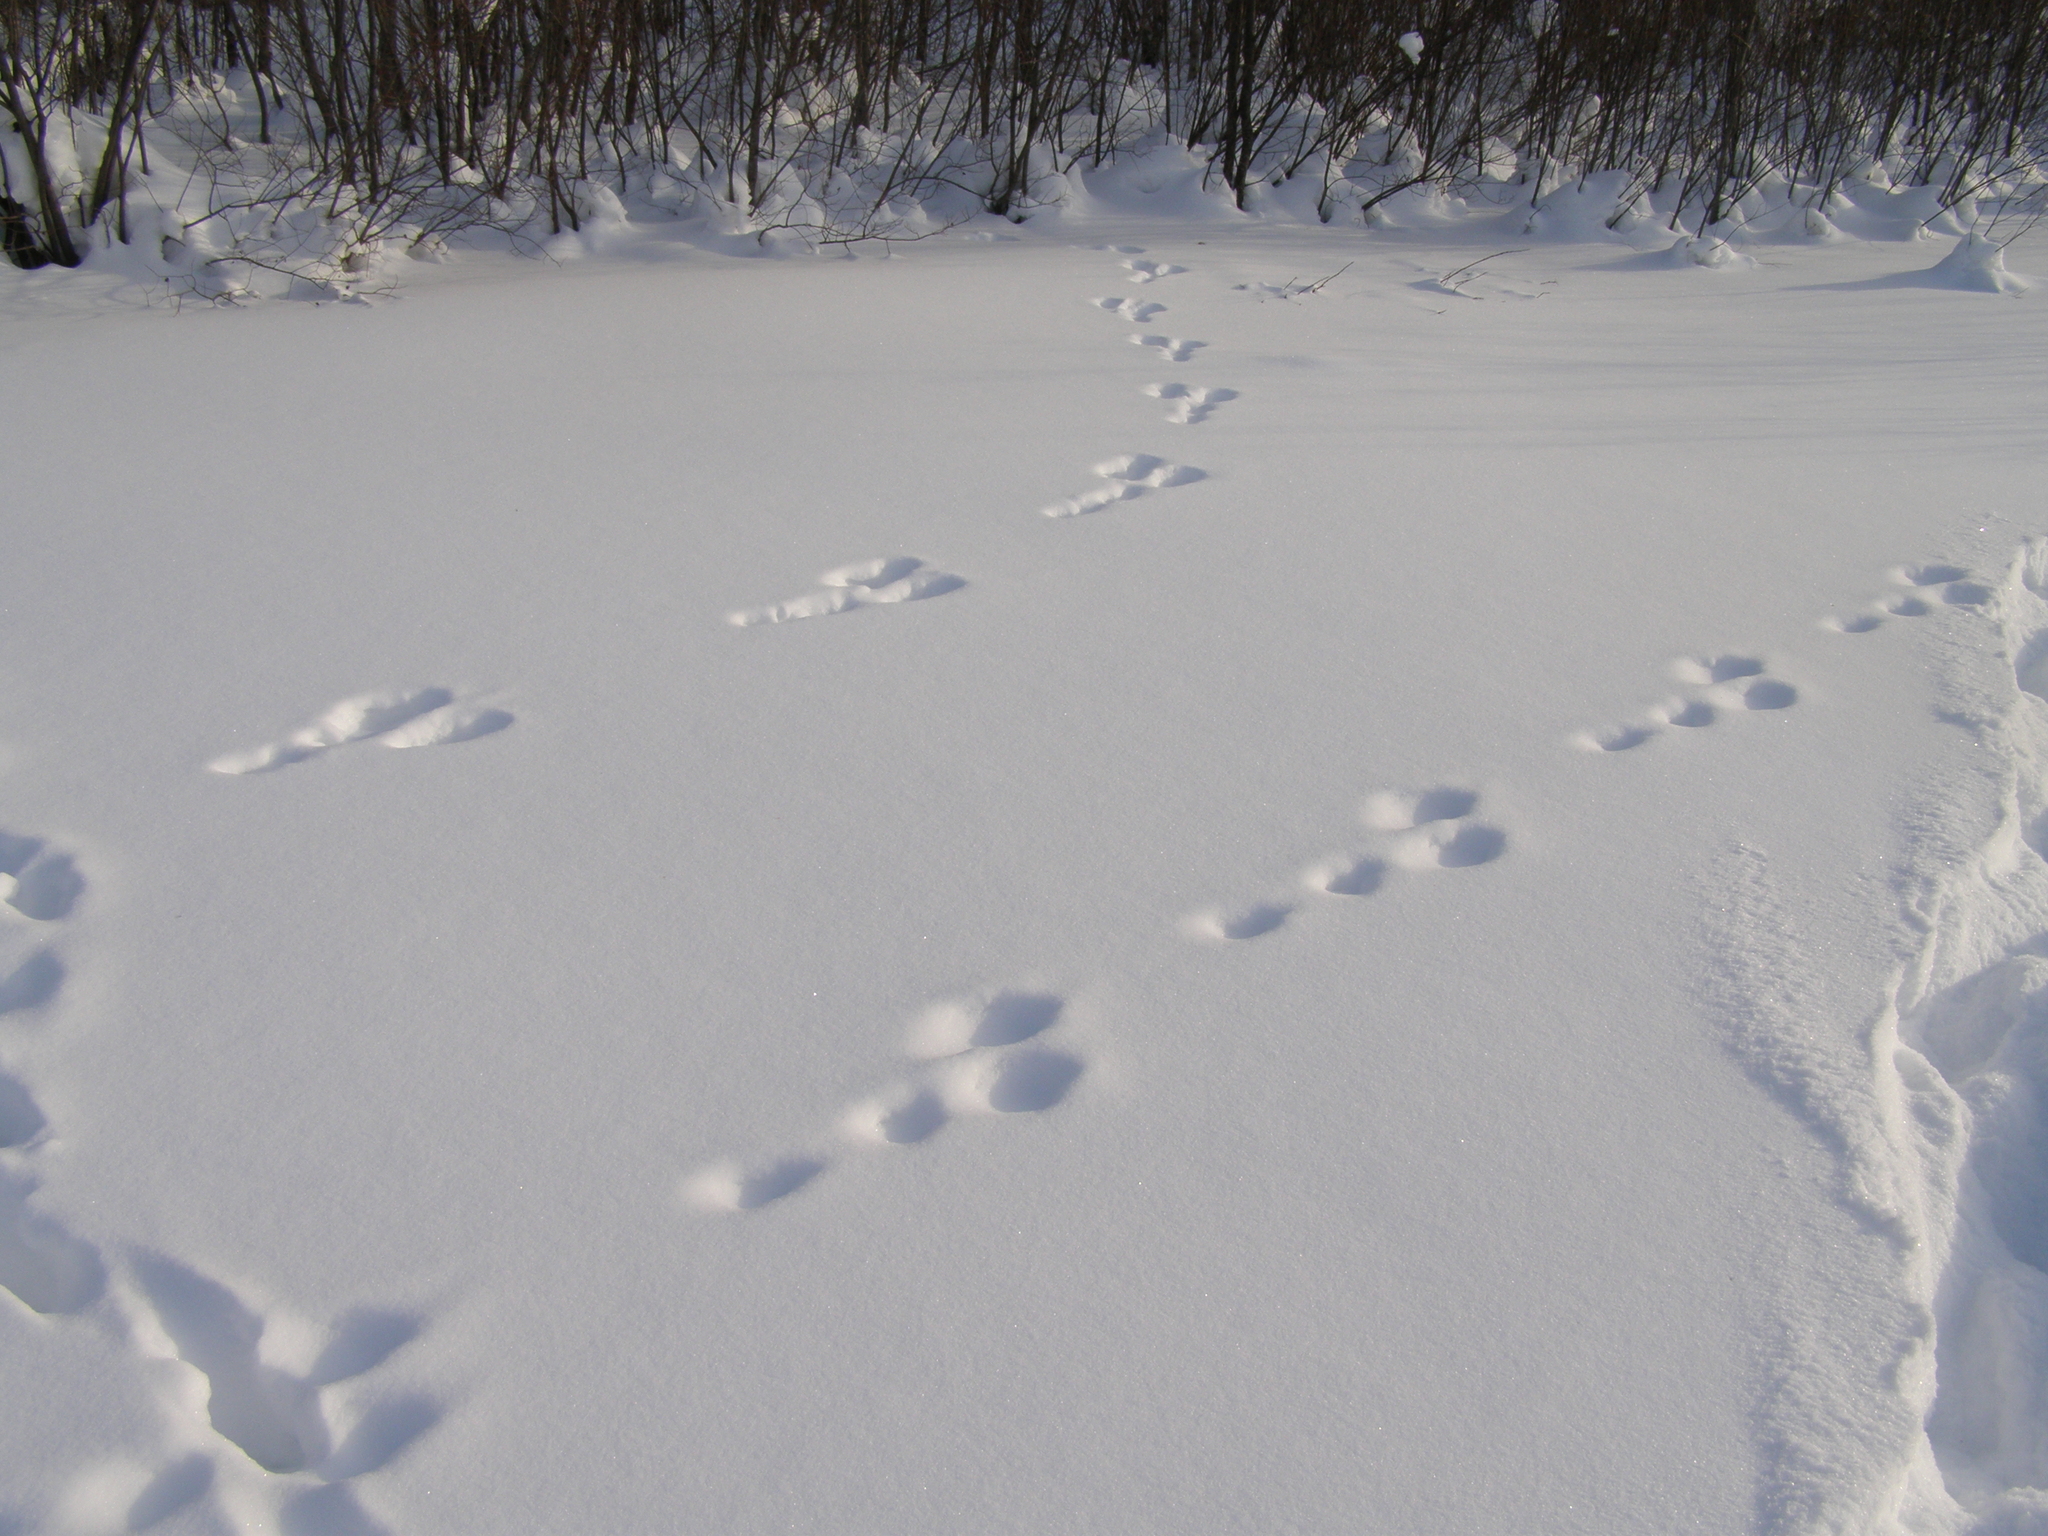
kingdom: Animalia
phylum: Chordata
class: Mammalia
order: Lagomorpha
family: Leporidae
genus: Lepus
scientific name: Lepus timidus
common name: Mountain hare
